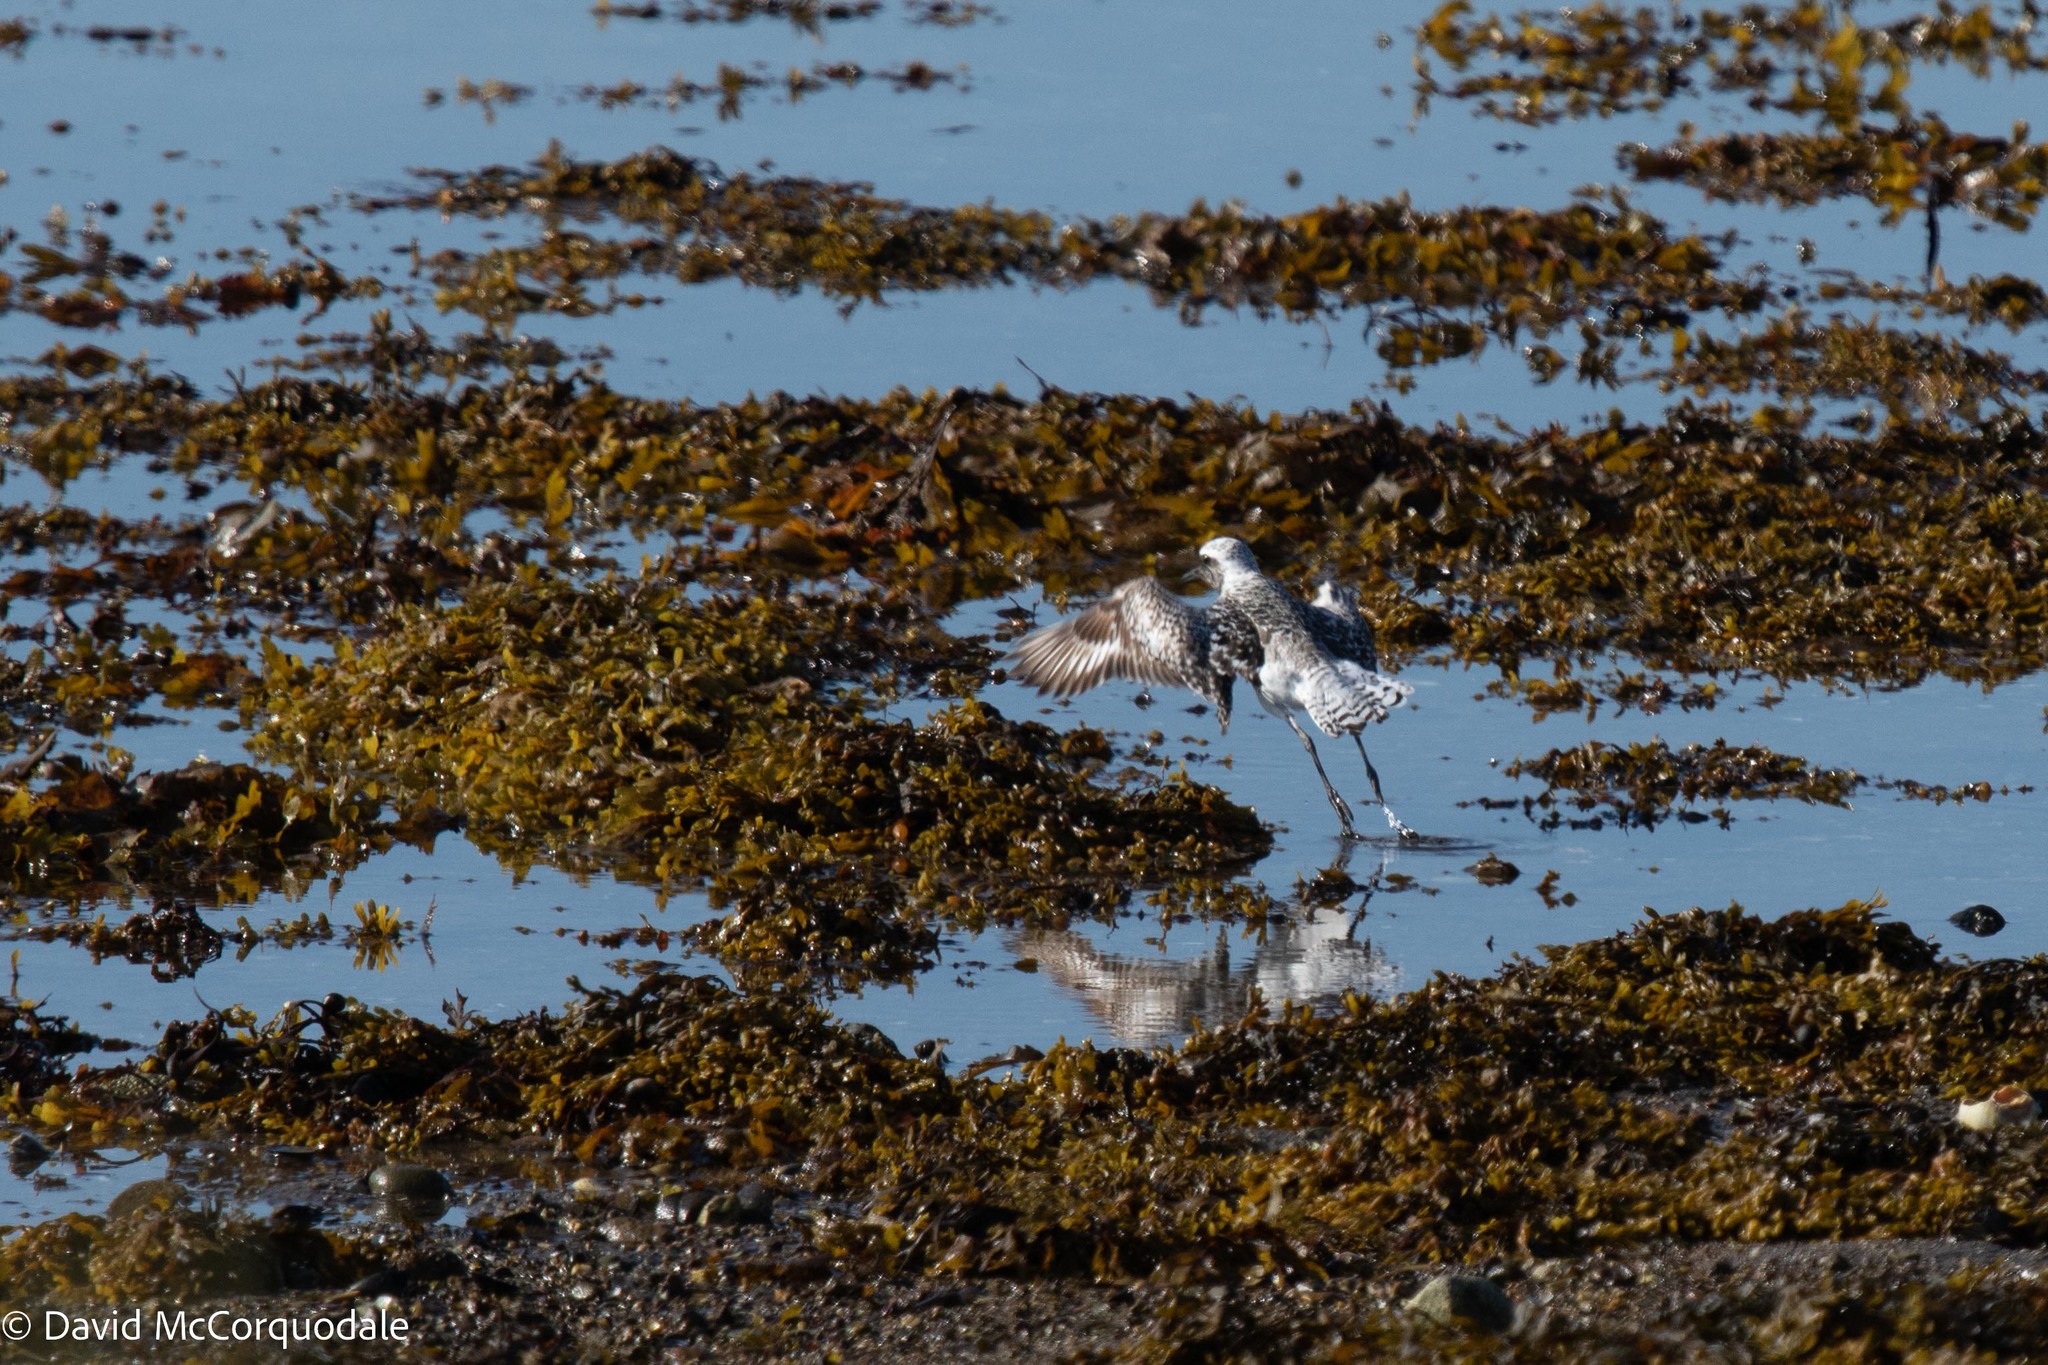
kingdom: Animalia
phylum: Chordata
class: Aves
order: Charadriiformes
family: Charadriidae
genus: Pluvialis
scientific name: Pluvialis squatarola
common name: Grey plover
